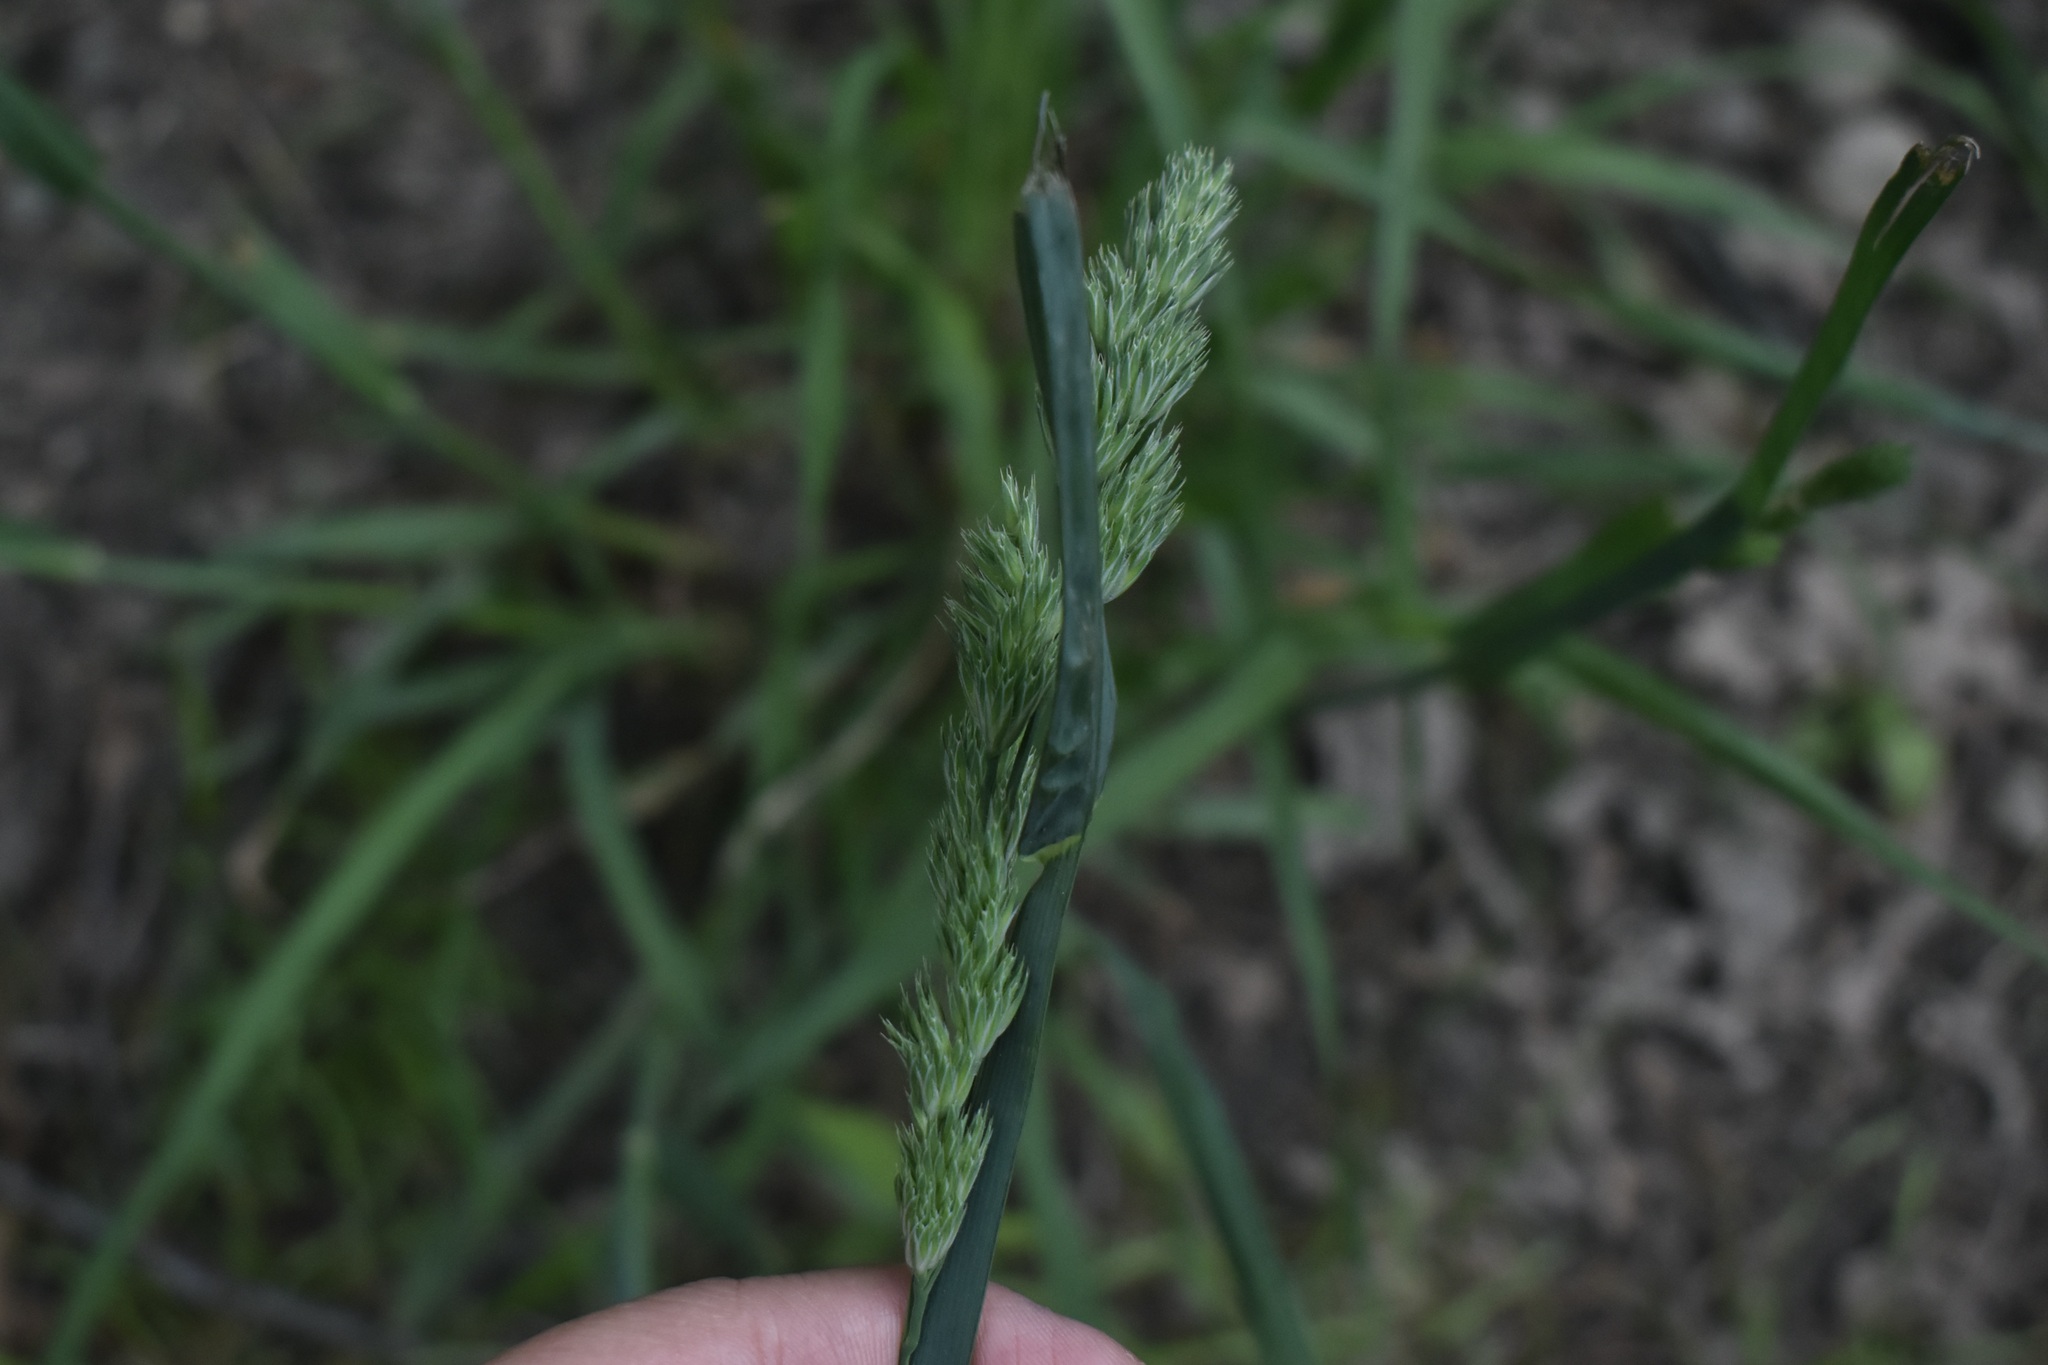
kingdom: Plantae
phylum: Tracheophyta
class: Liliopsida
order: Poales
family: Poaceae
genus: Dactylis
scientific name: Dactylis glomerata
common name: Orchardgrass
